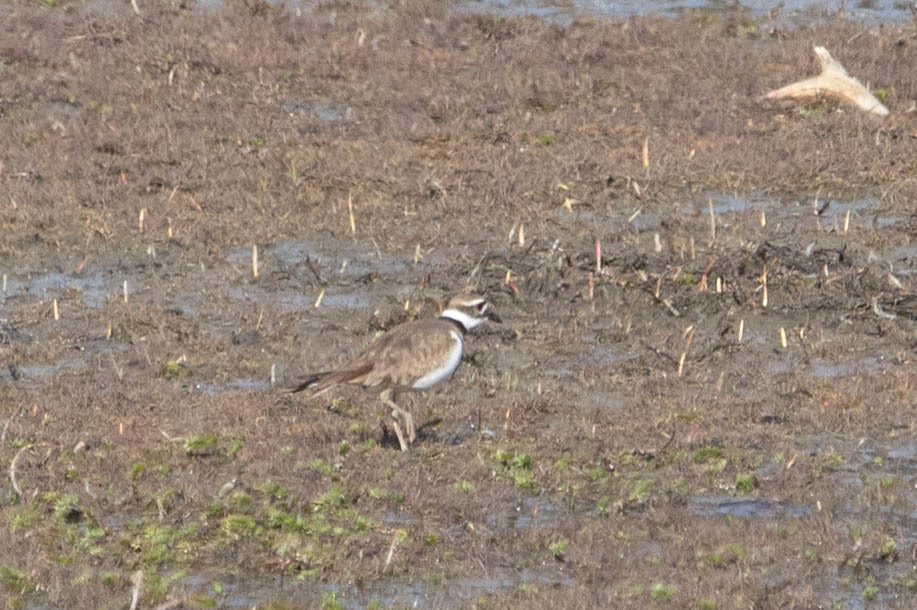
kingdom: Animalia
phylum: Chordata
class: Aves
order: Charadriiformes
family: Charadriidae
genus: Charadrius
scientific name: Charadrius vociferus
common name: Killdeer
